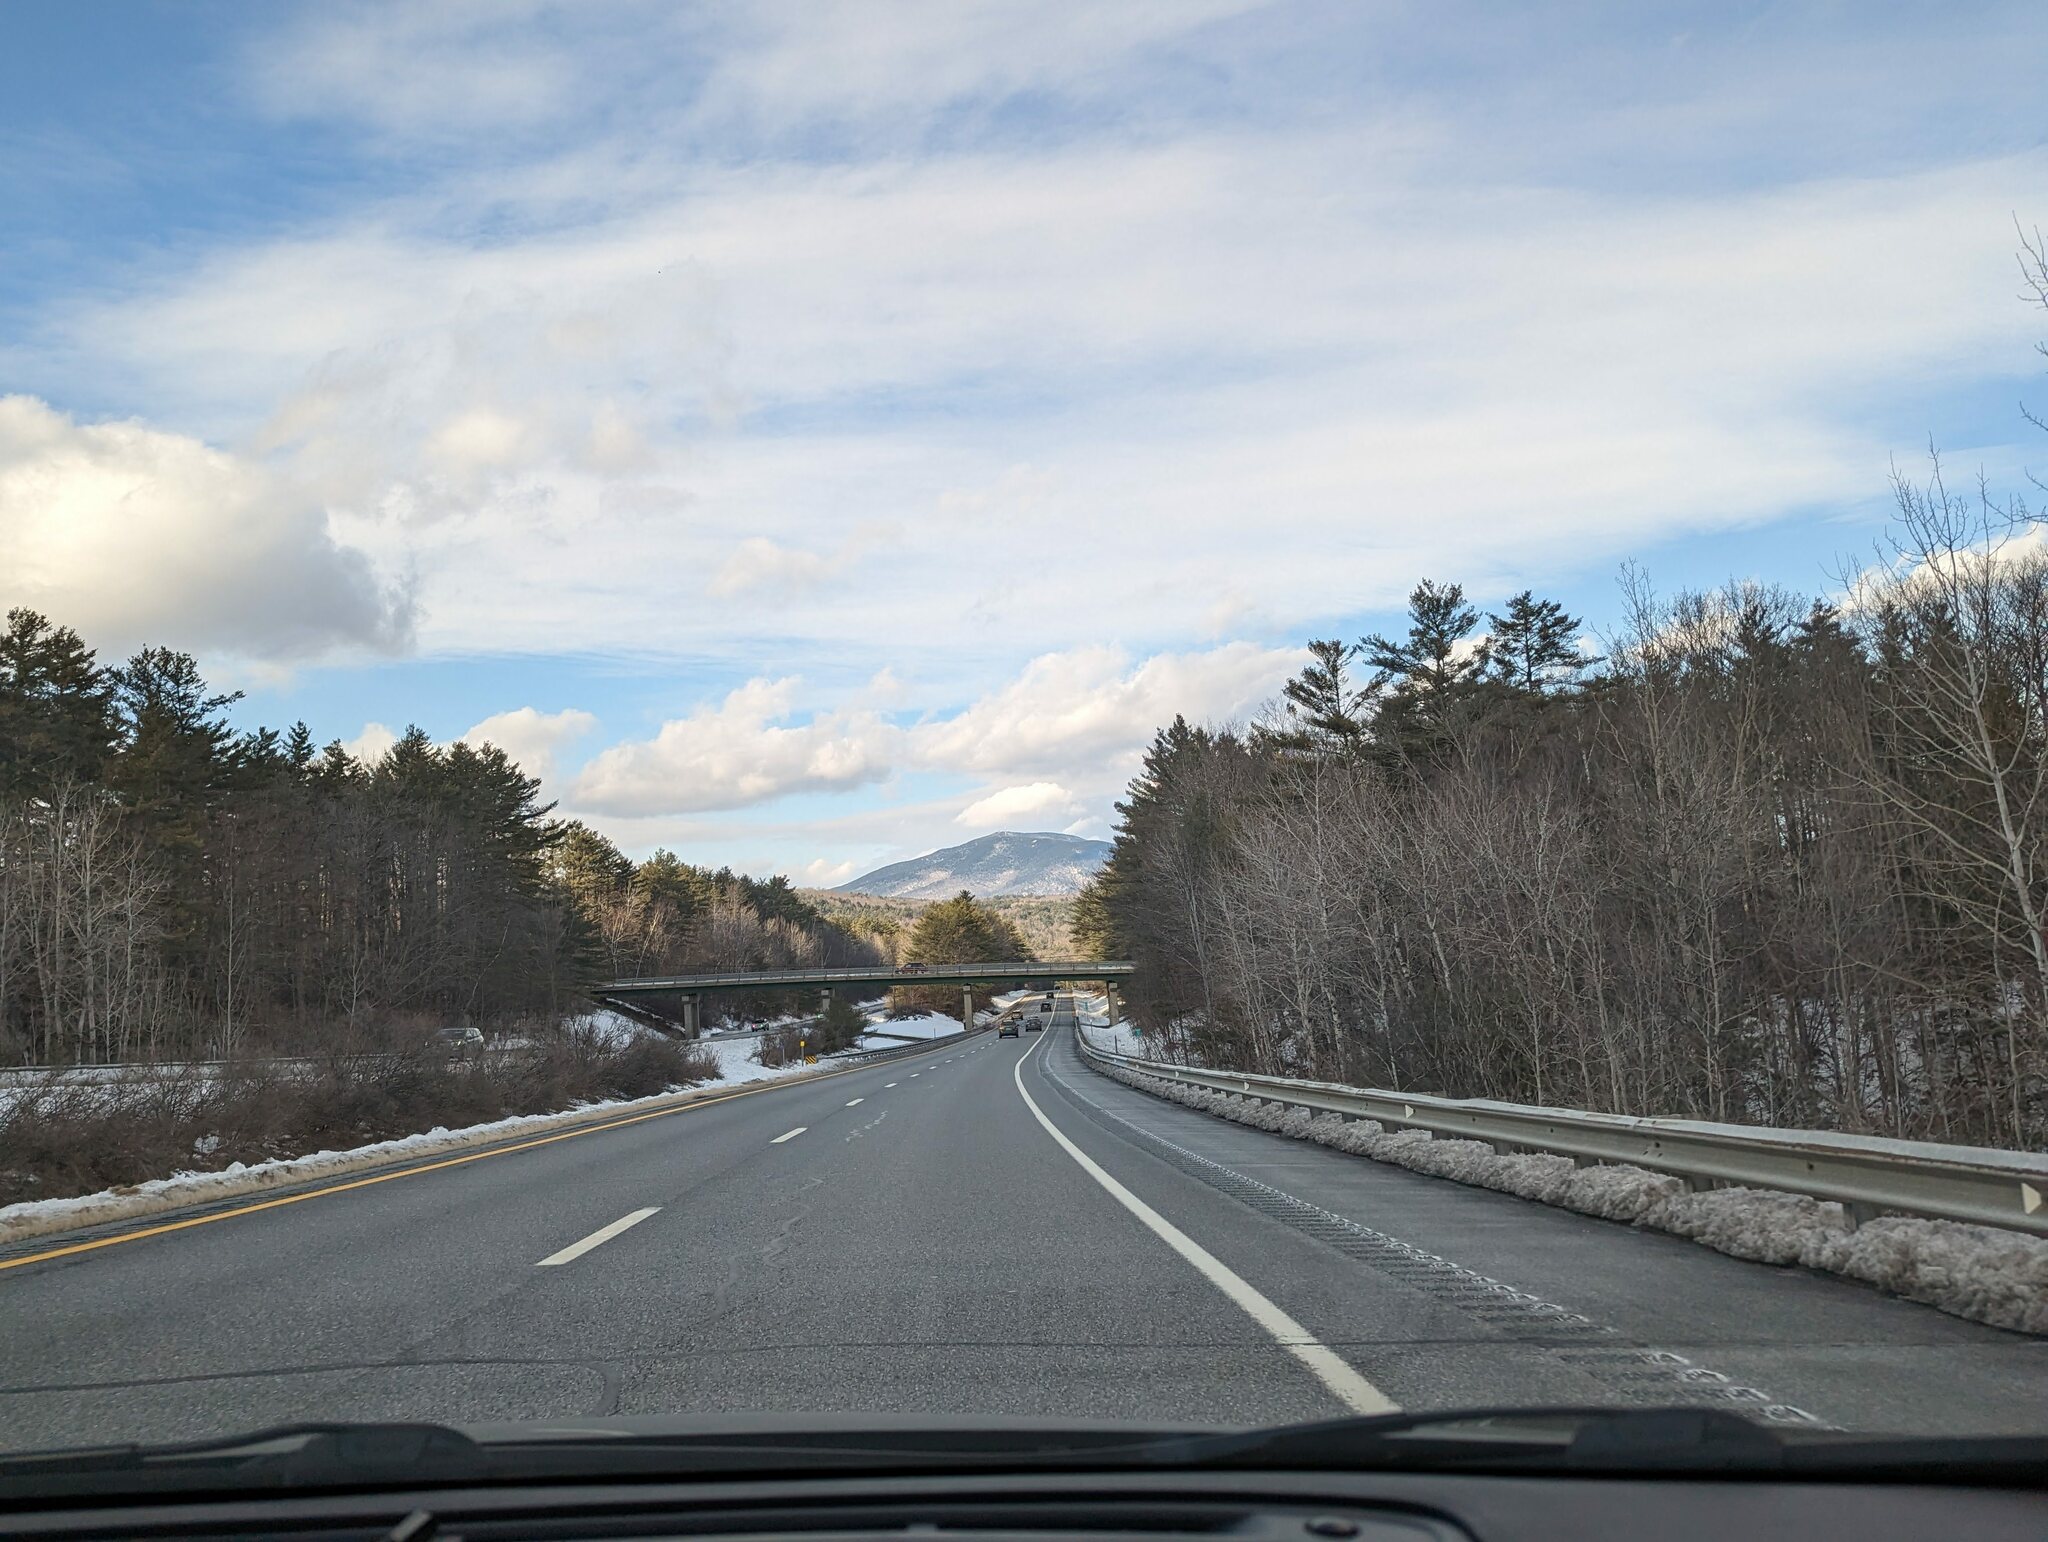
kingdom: Plantae
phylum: Tracheophyta
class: Pinopsida
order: Pinales
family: Pinaceae
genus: Pinus
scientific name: Pinus strobus
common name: Weymouth pine
